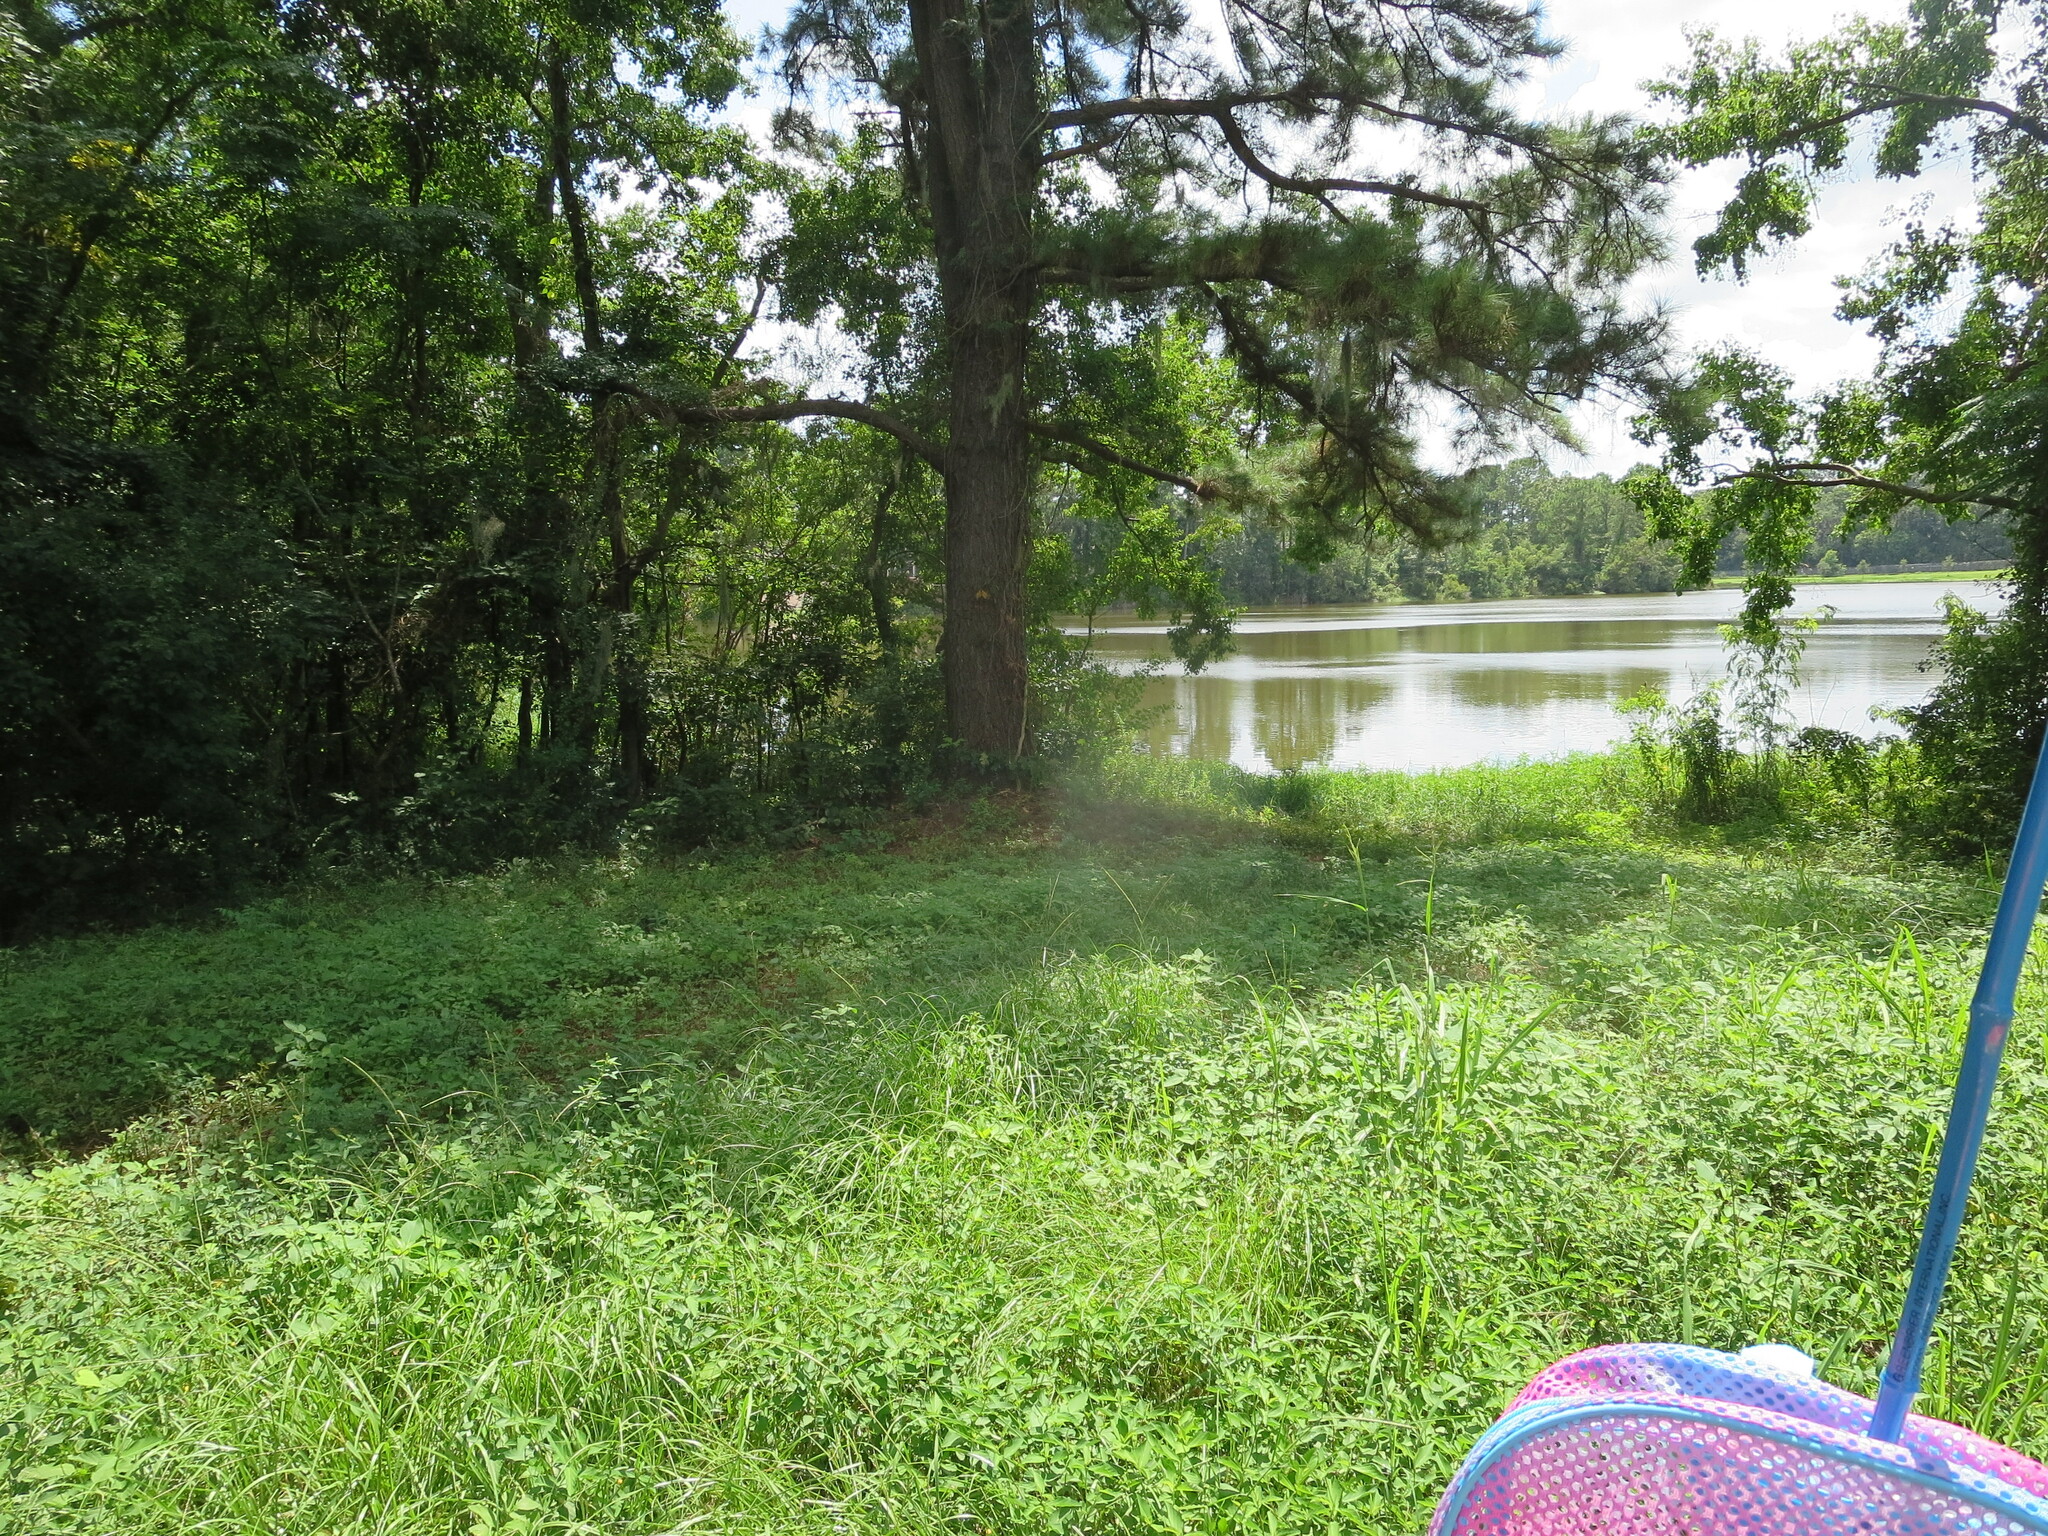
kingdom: Plantae
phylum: Tracheophyta
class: Magnoliopsida
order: Ericales
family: Ebenaceae
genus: Diospyros
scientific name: Diospyros virginiana
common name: Persimmon
